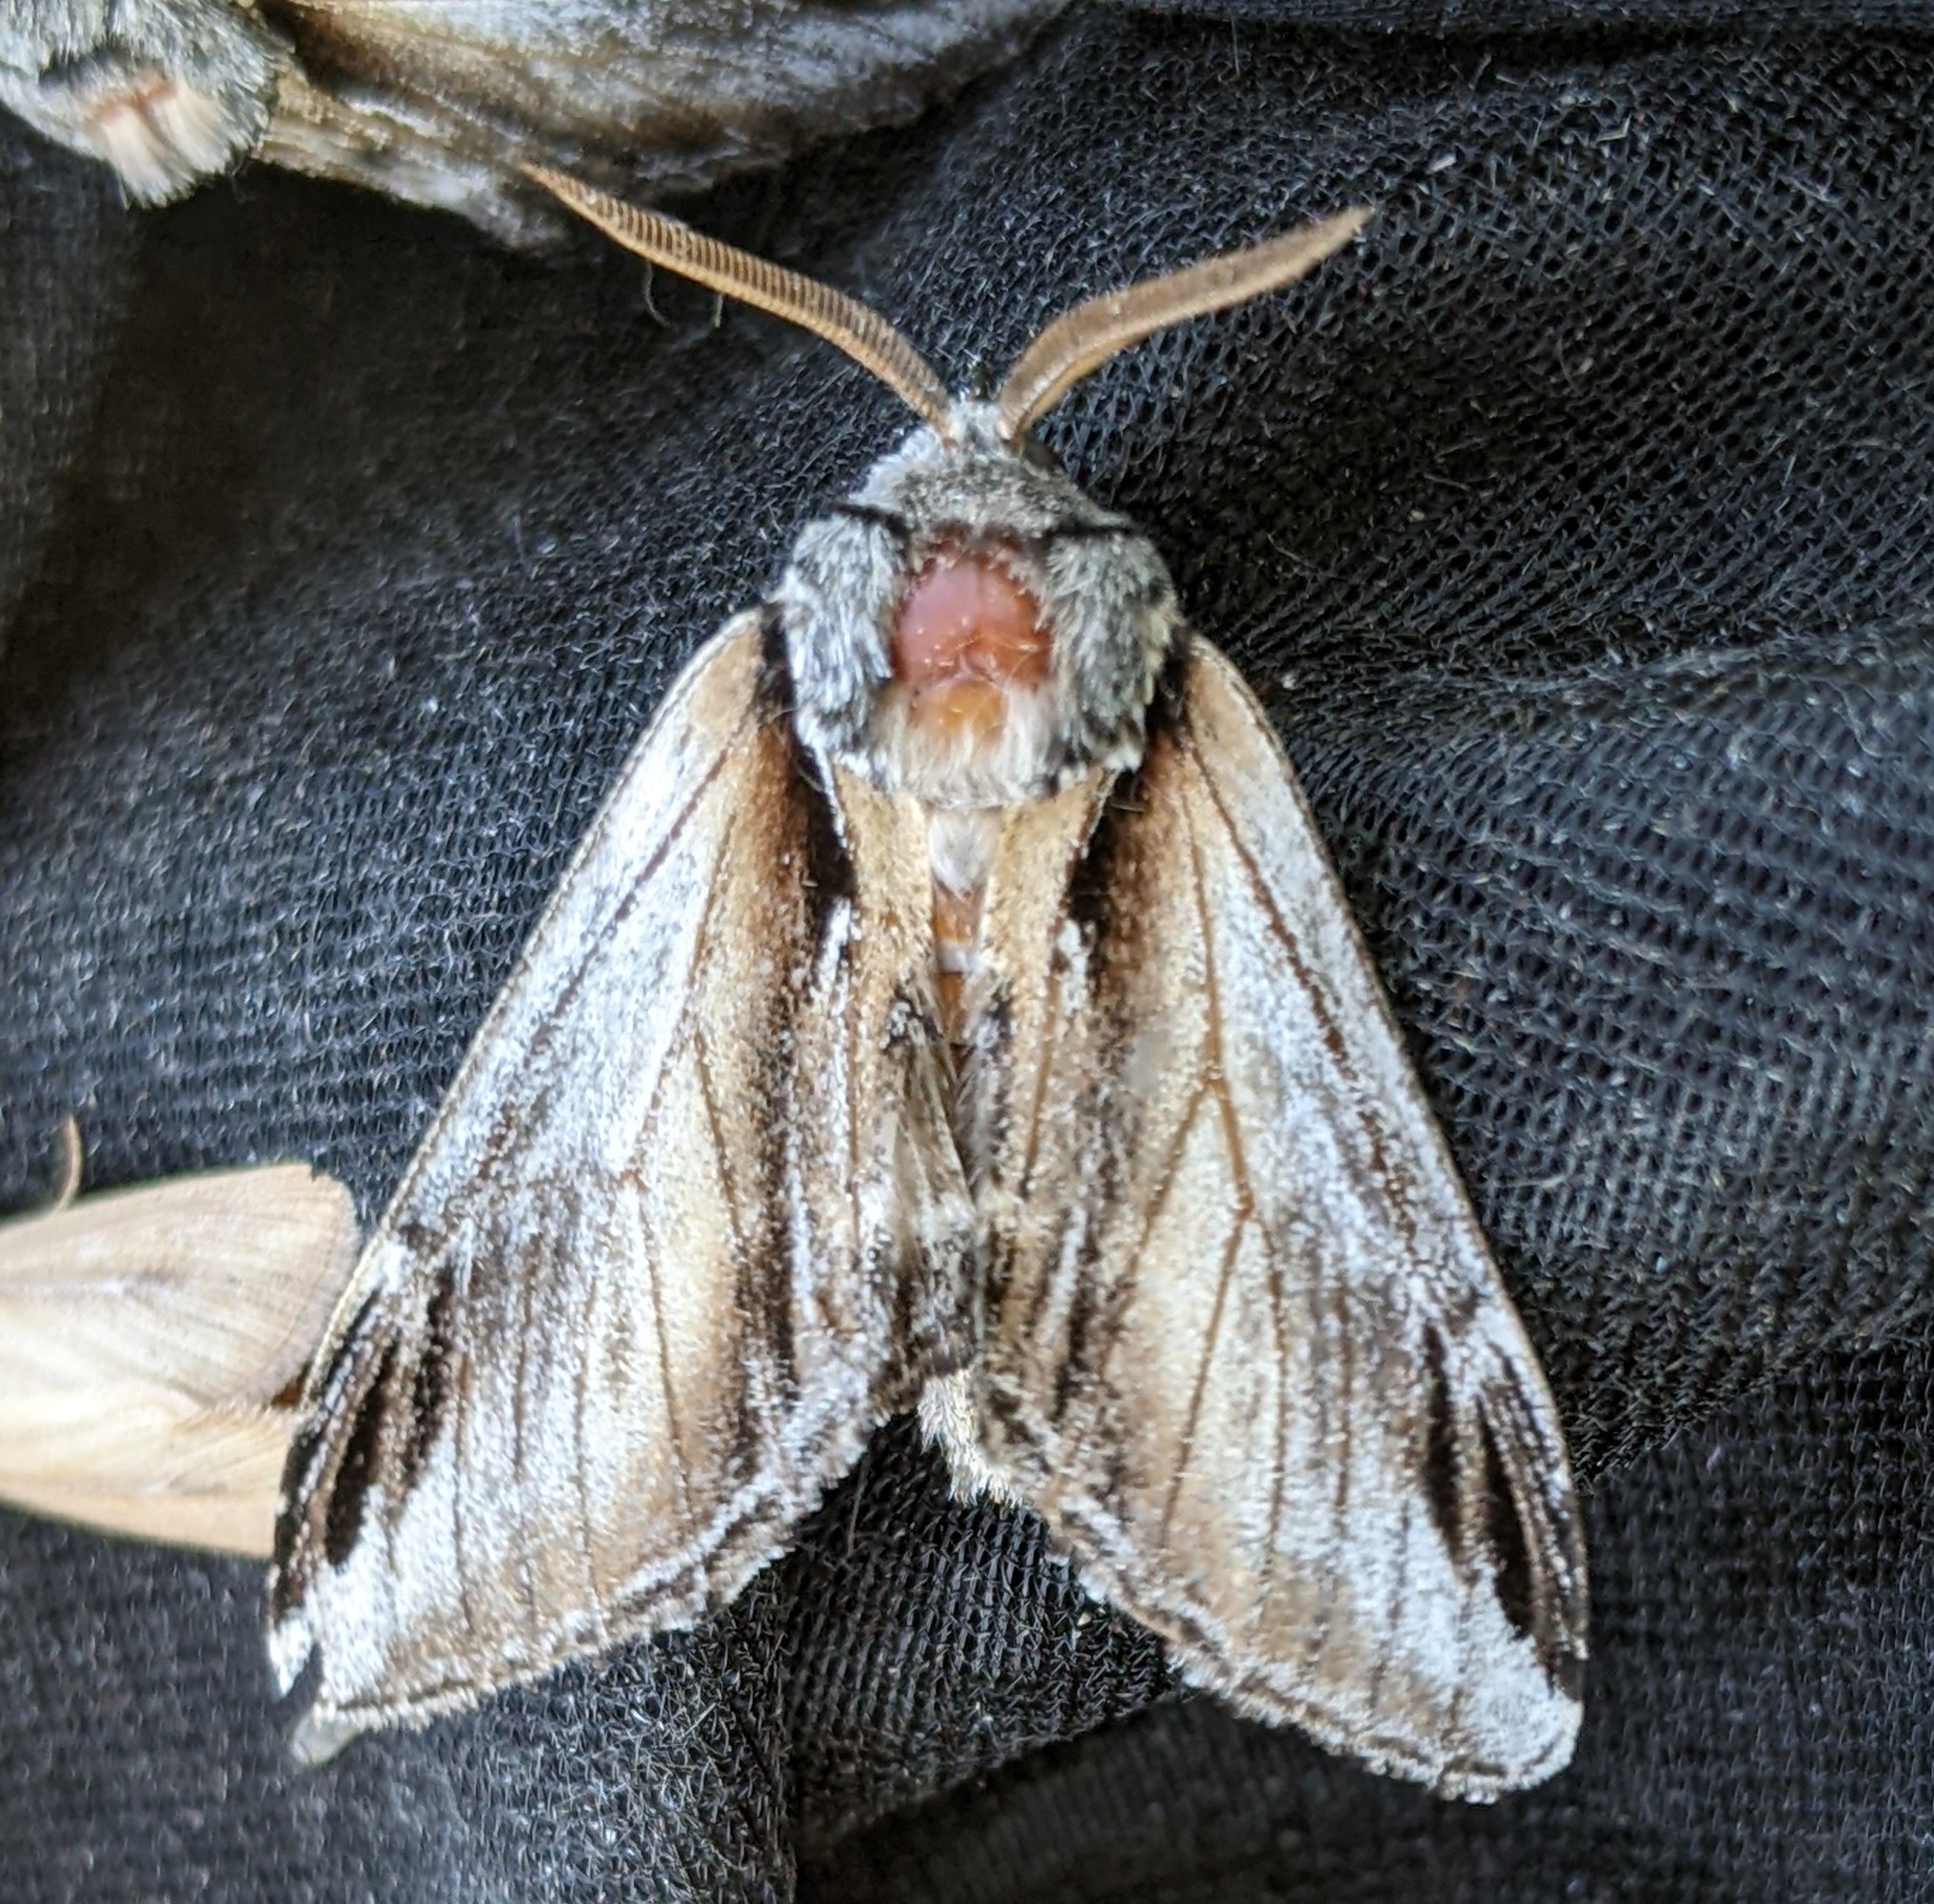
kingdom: Animalia
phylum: Arthropoda
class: Insecta
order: Lepidoptera
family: Notodontidae
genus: Pheosia
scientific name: Pheosia rimosa
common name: Black-rimmed prominent
